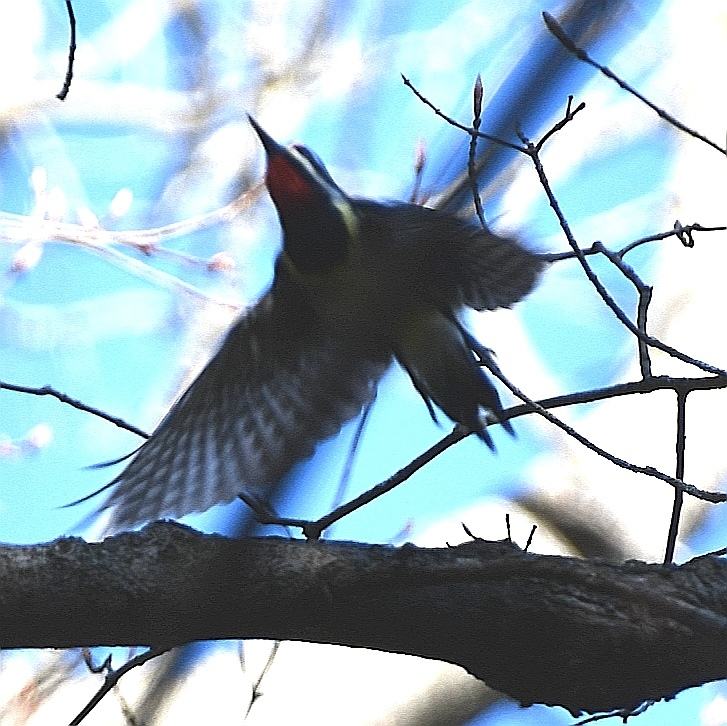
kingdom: Animalia
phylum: Chordata
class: Aves
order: Piciformes
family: Picidae
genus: Sphyrapicus
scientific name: Sphyrapicus varius
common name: Yellow-bellied sapsucker
